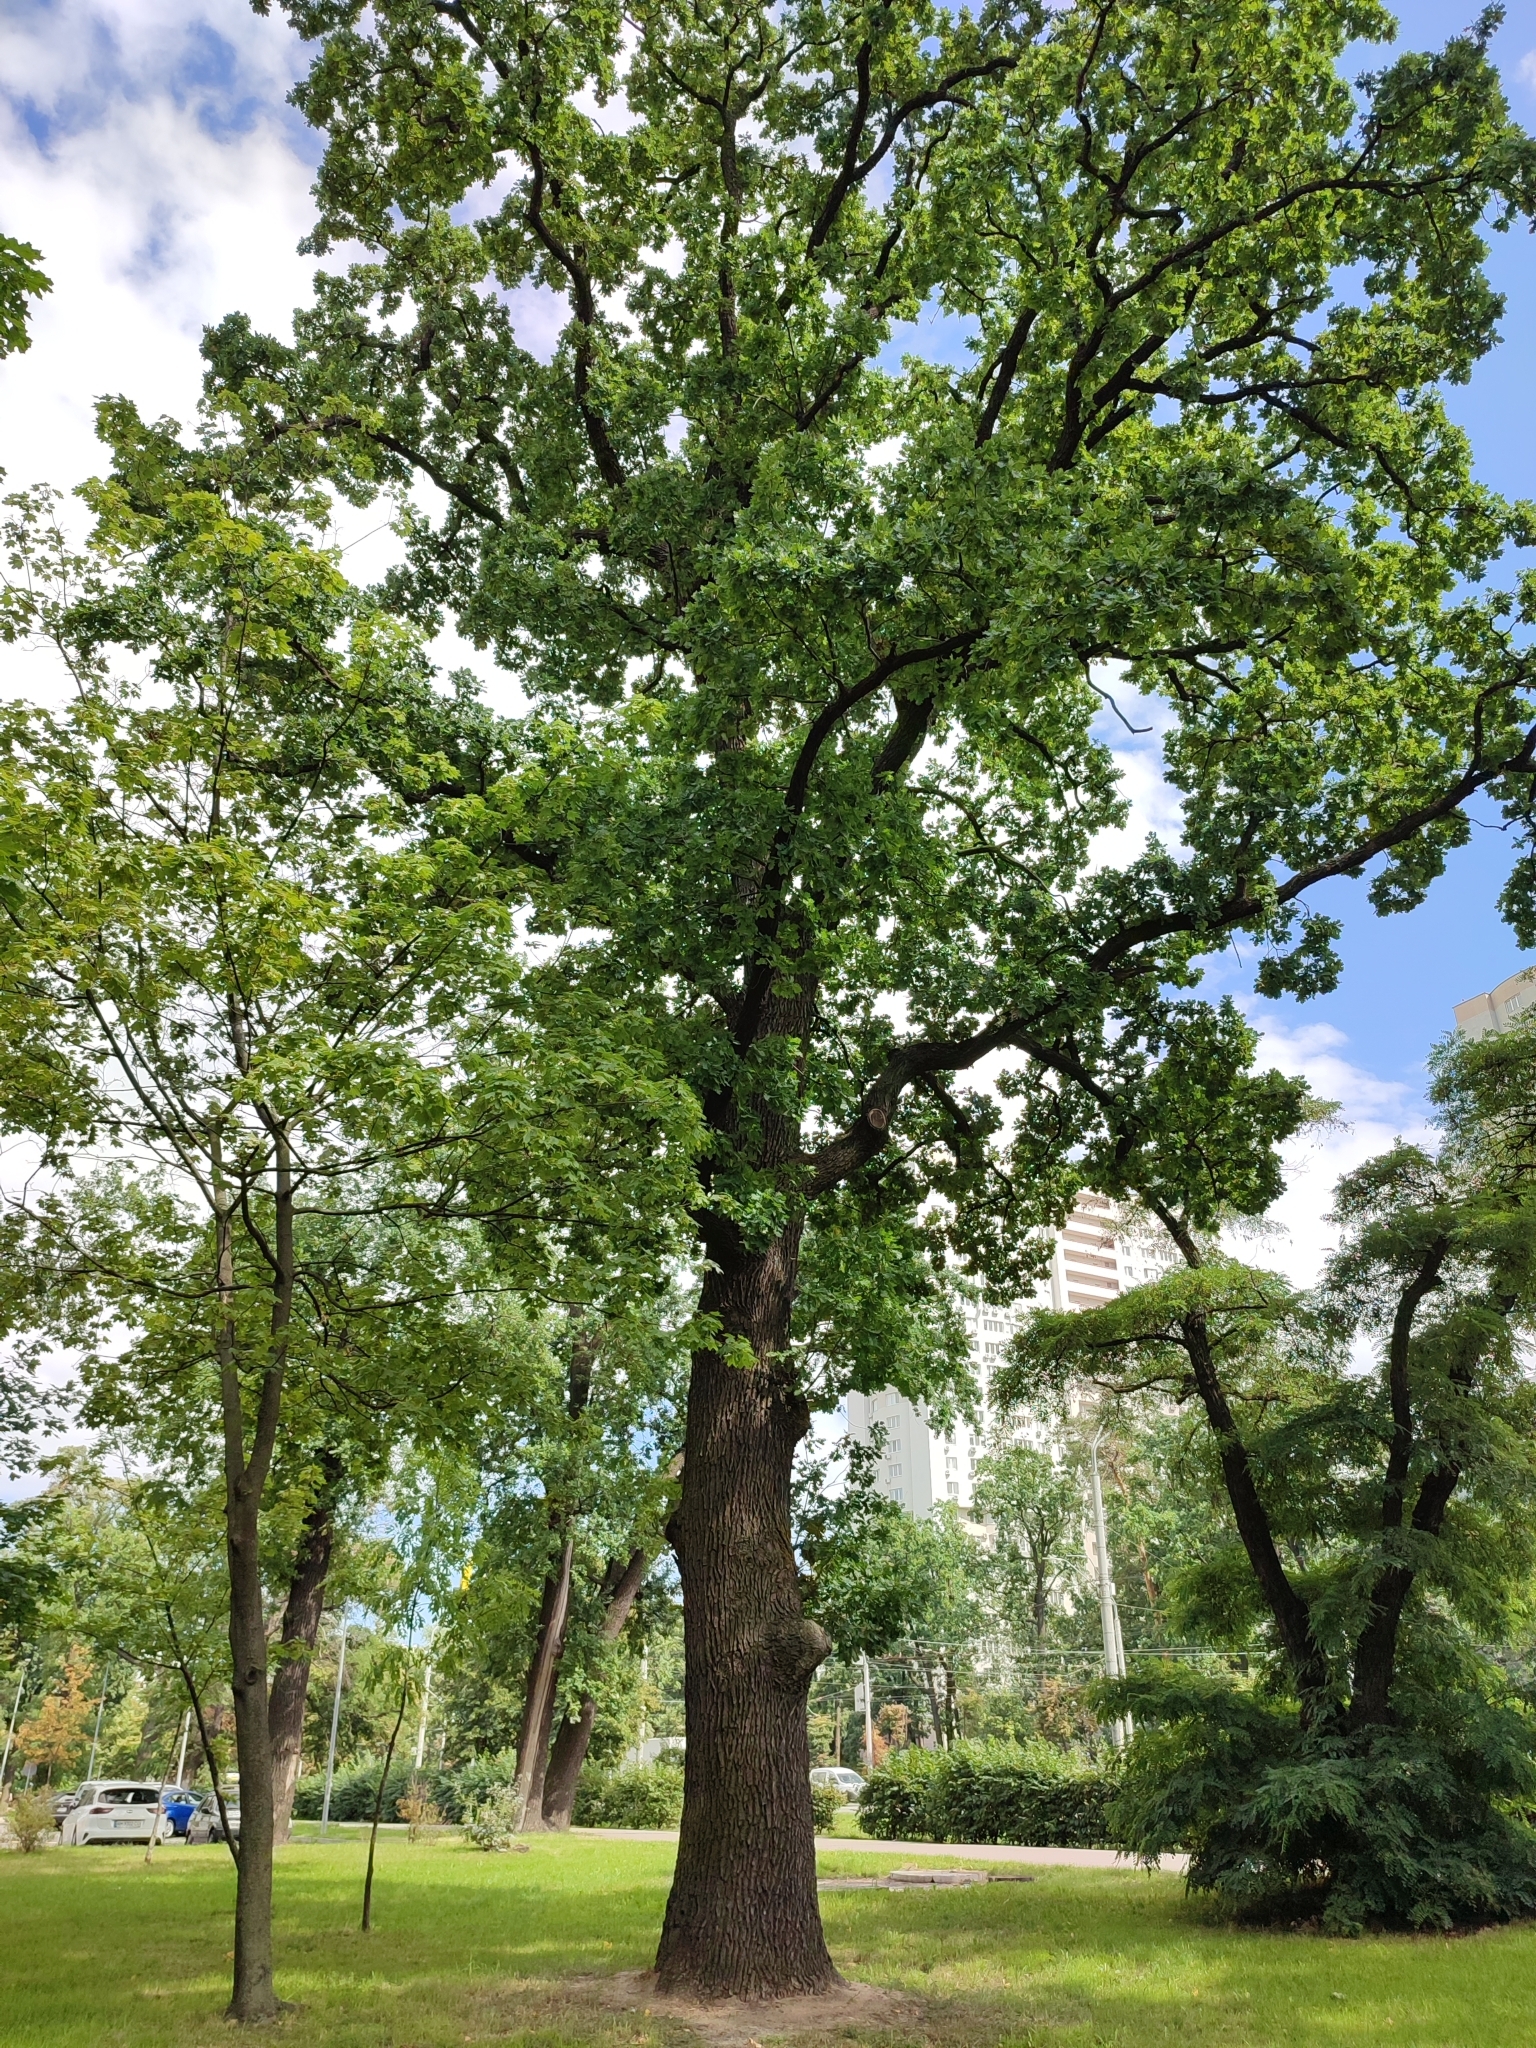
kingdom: Plantae
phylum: Tracheophyta
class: Magnoliopsida
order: Fagales
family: Fagaceae
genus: Quercus
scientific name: Quercus robur
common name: Pedunculate oak
